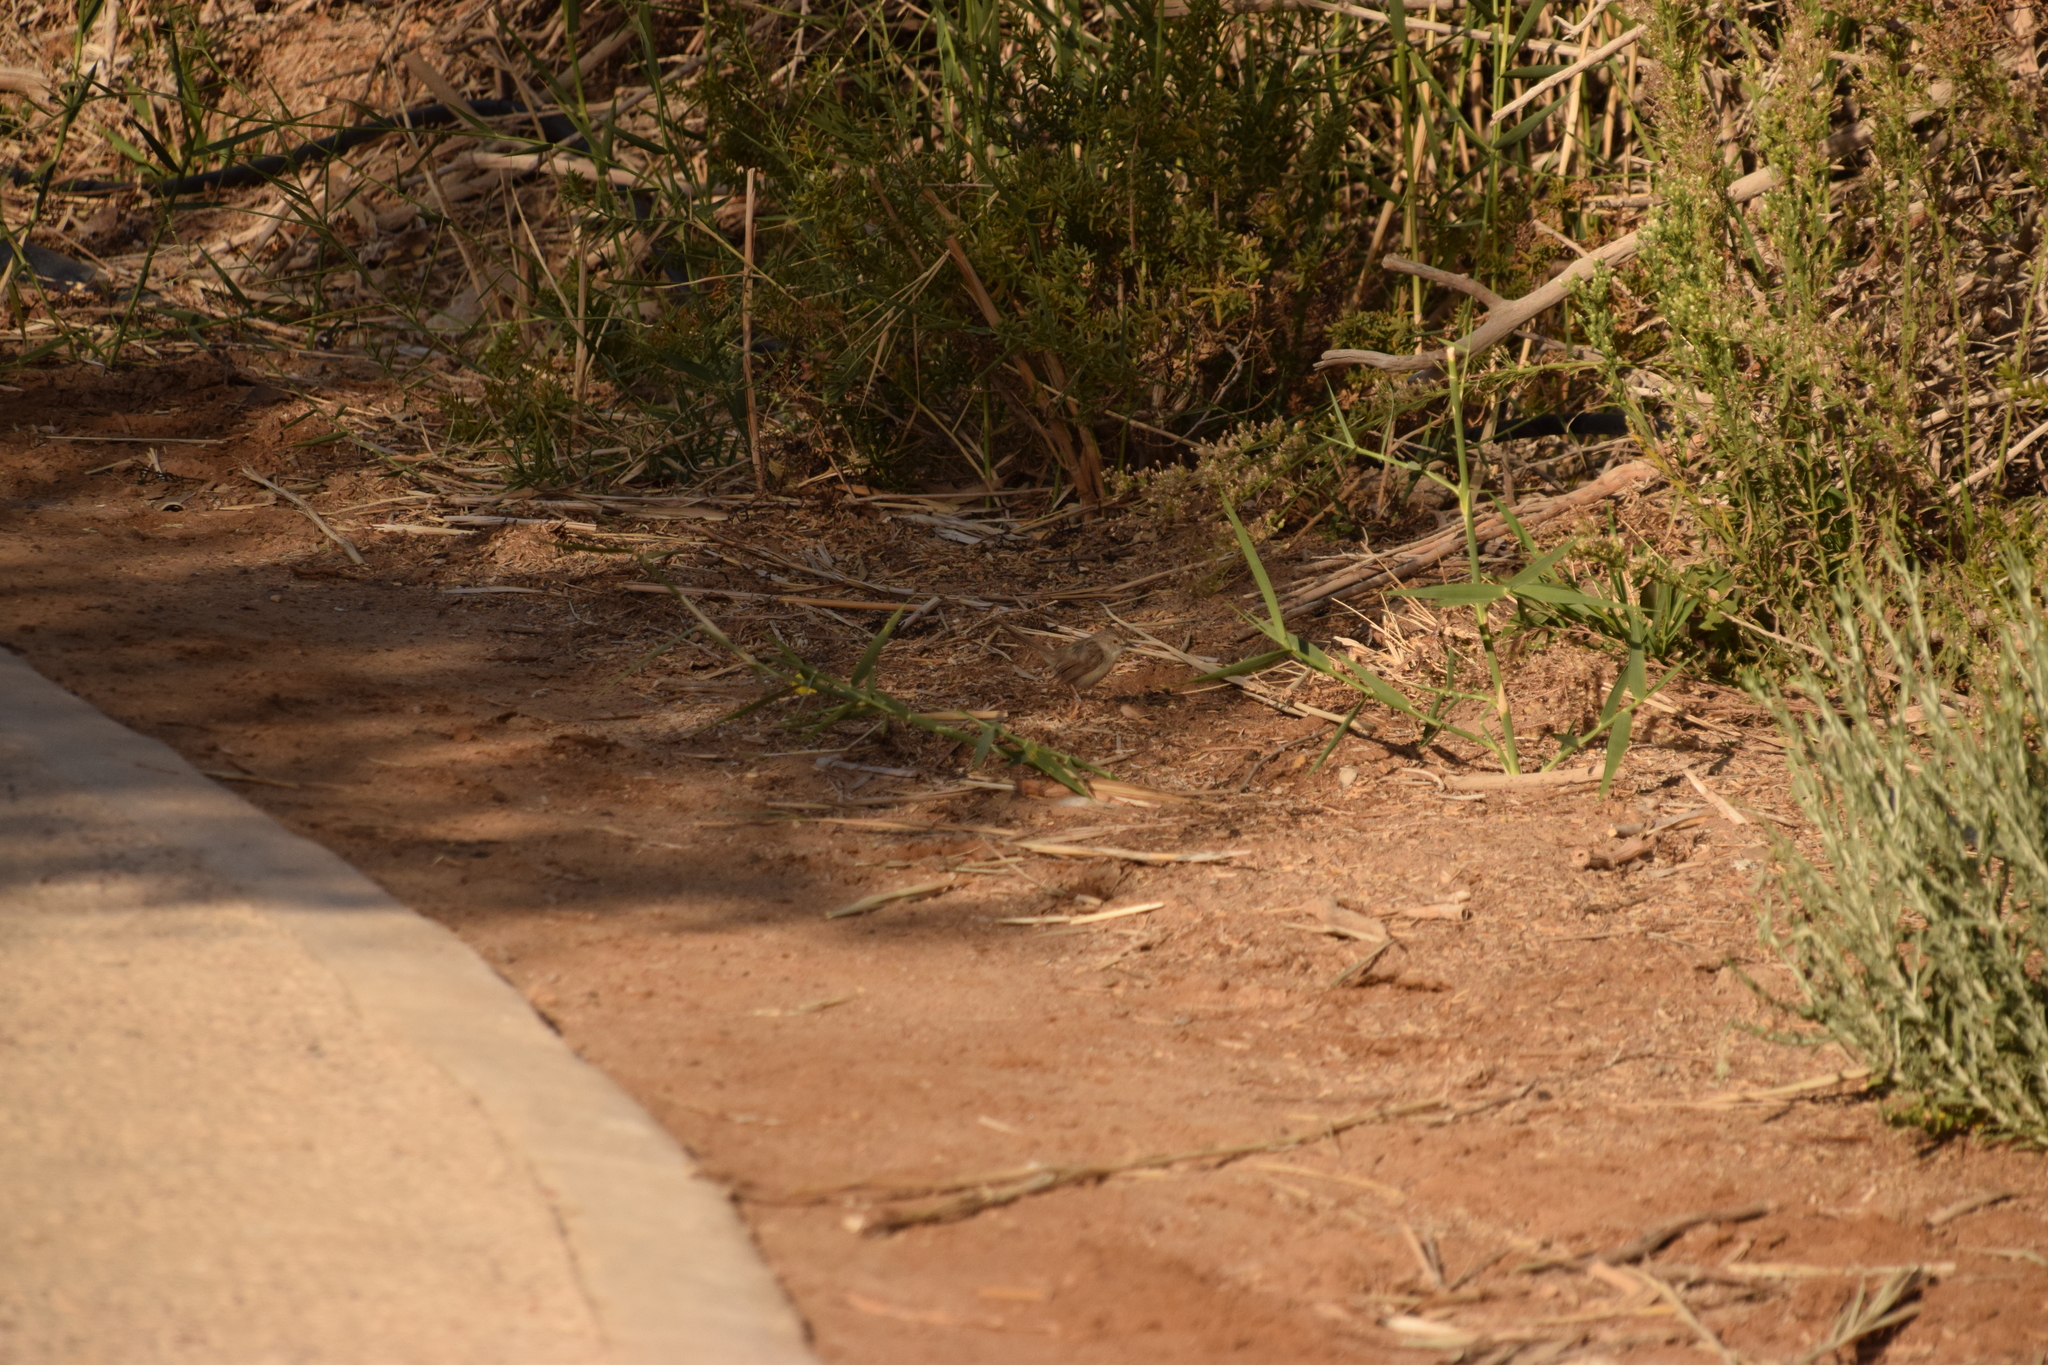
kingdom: Animalia
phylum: Chordata
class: Aves
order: Passeriformes
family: Cisticolidae
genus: Prinia
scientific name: Prinia gracilis
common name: Graceful prinia
